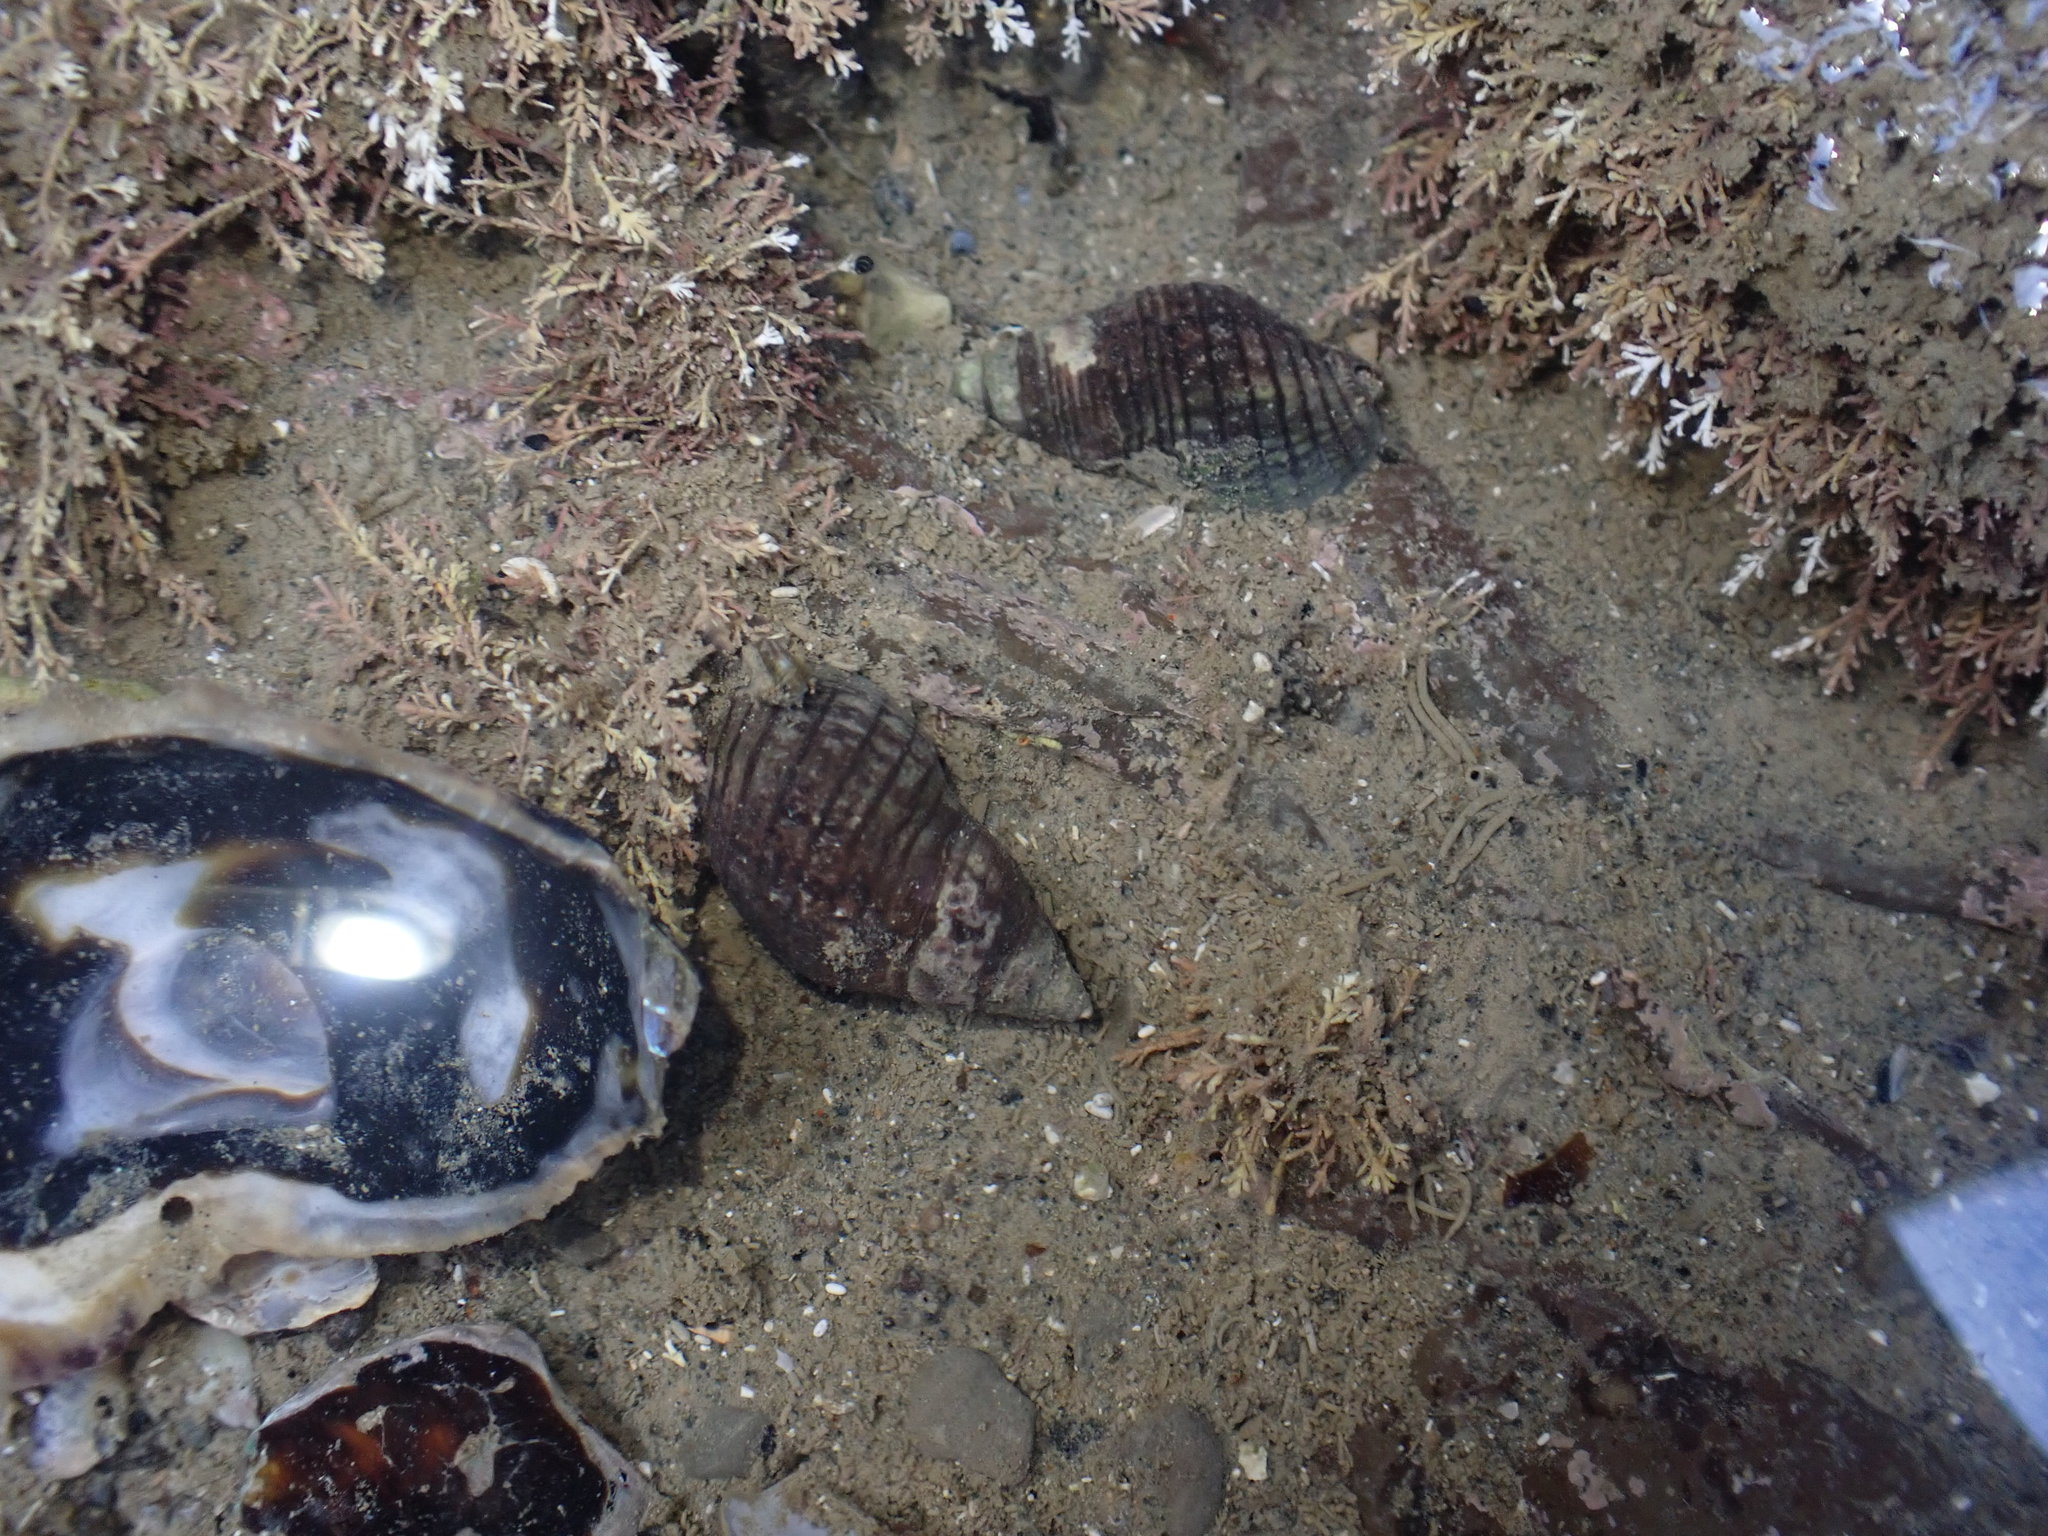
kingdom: Animalia
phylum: Mollusca
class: Gastropoda
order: Neogastropoda
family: Cominellidae
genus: Cominella
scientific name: Cominella virgata
